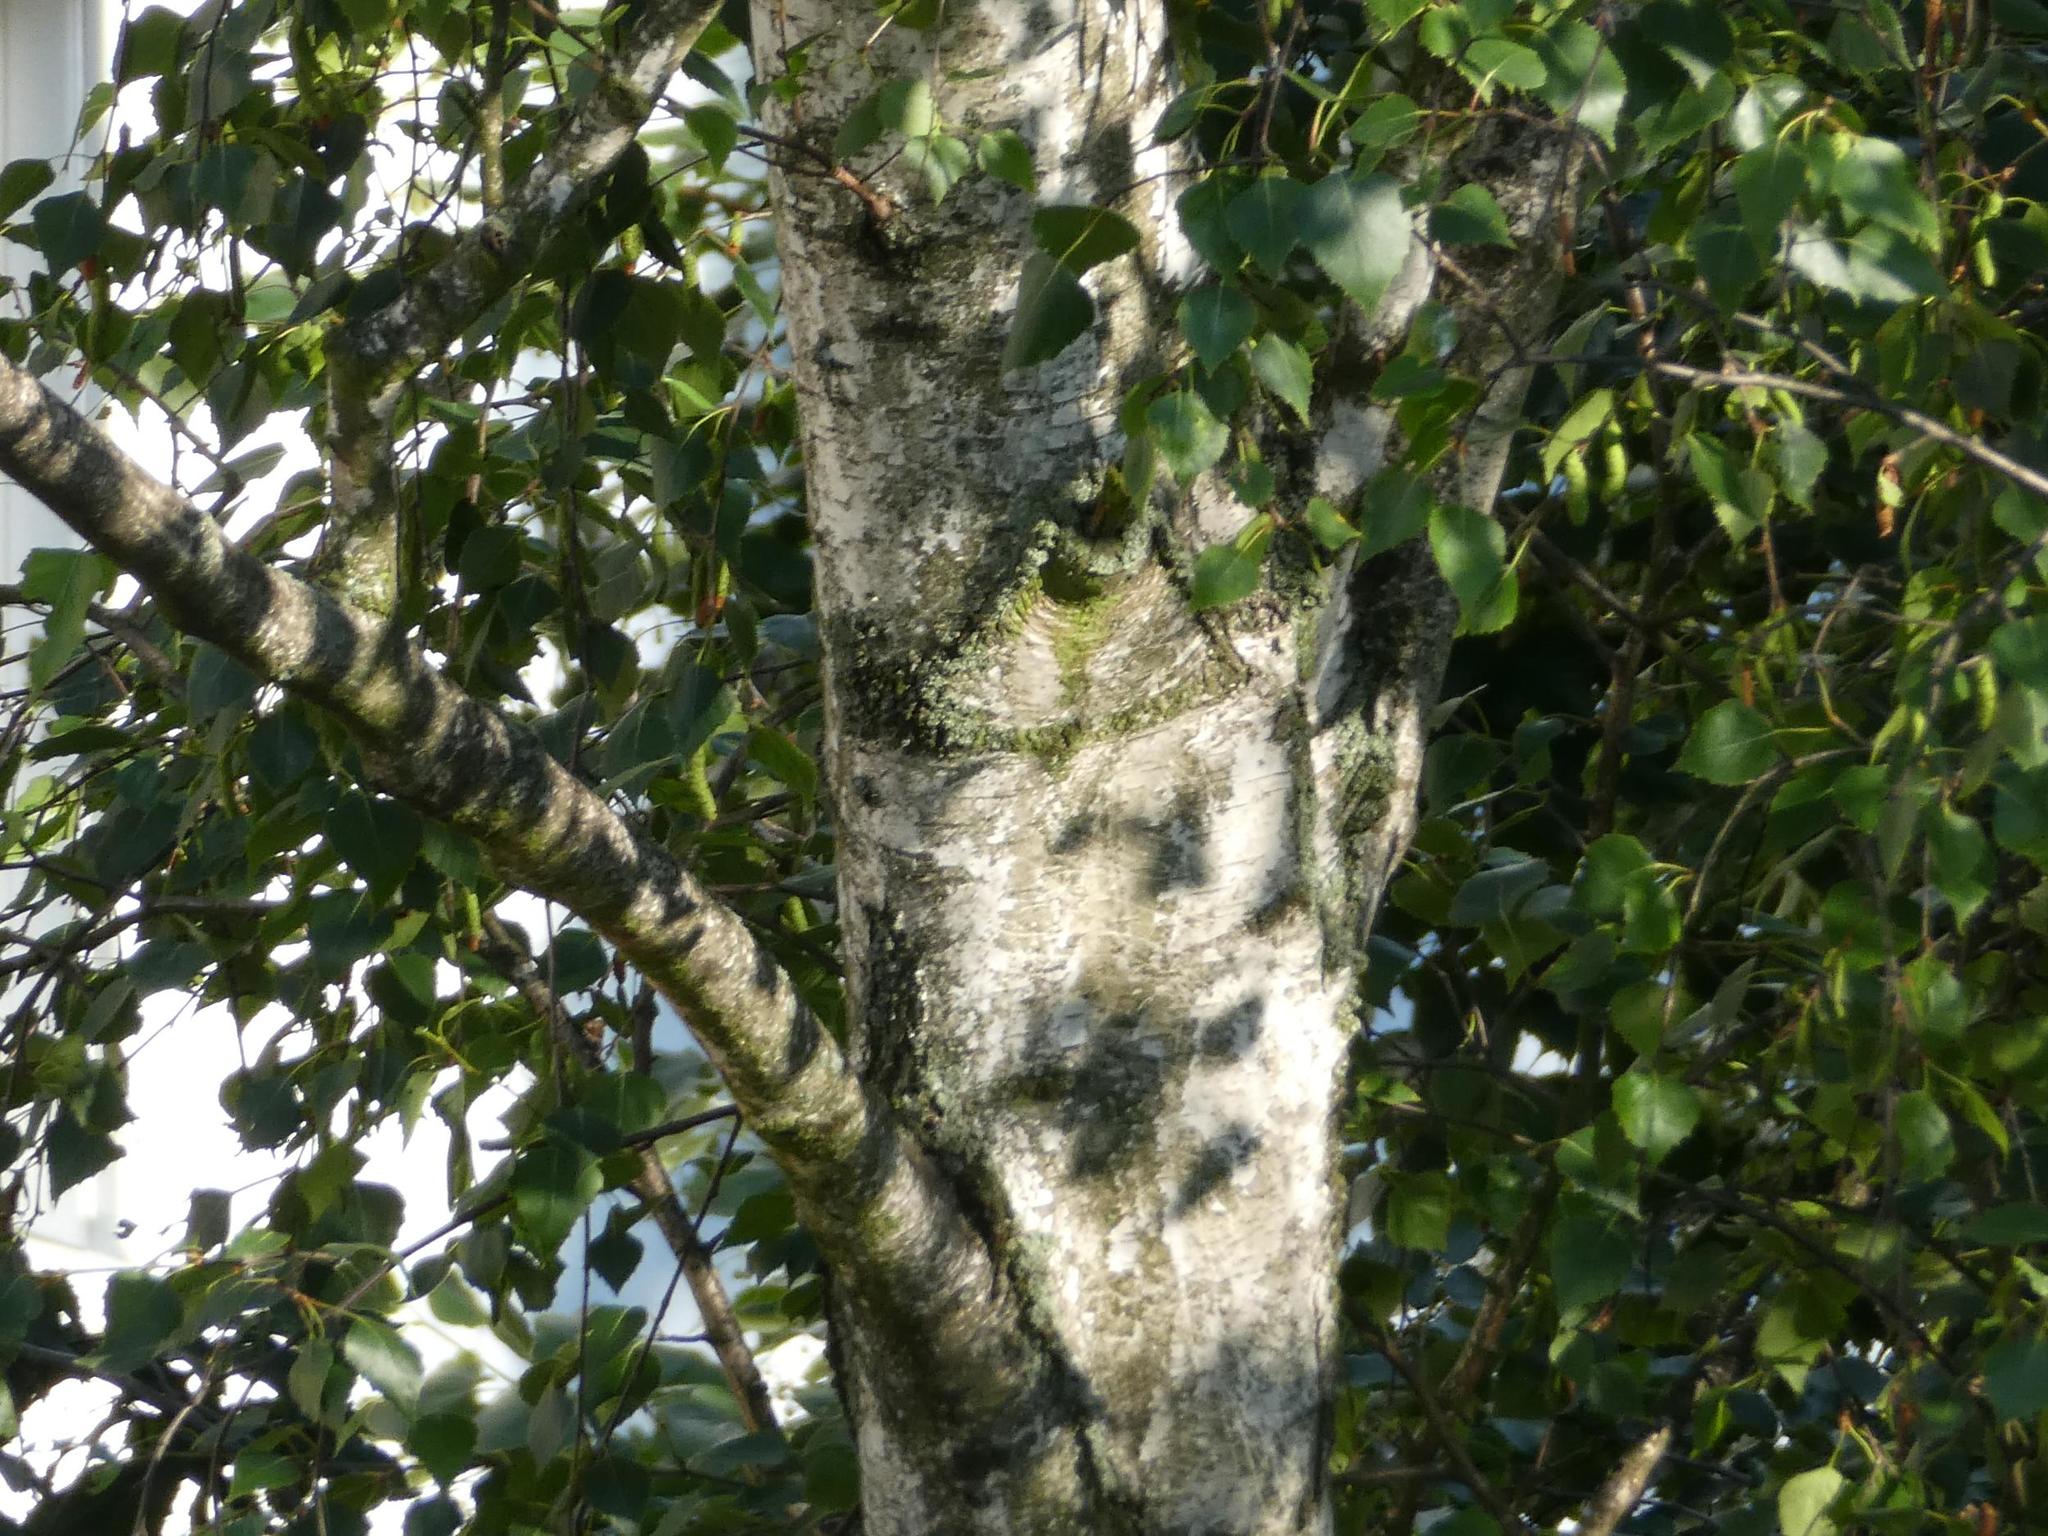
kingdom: Plantae
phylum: Tracheophyta
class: Magnoliopsida
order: Fagales
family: Betulaceae
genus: Betula
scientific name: Betula pendula
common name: Silver birch
